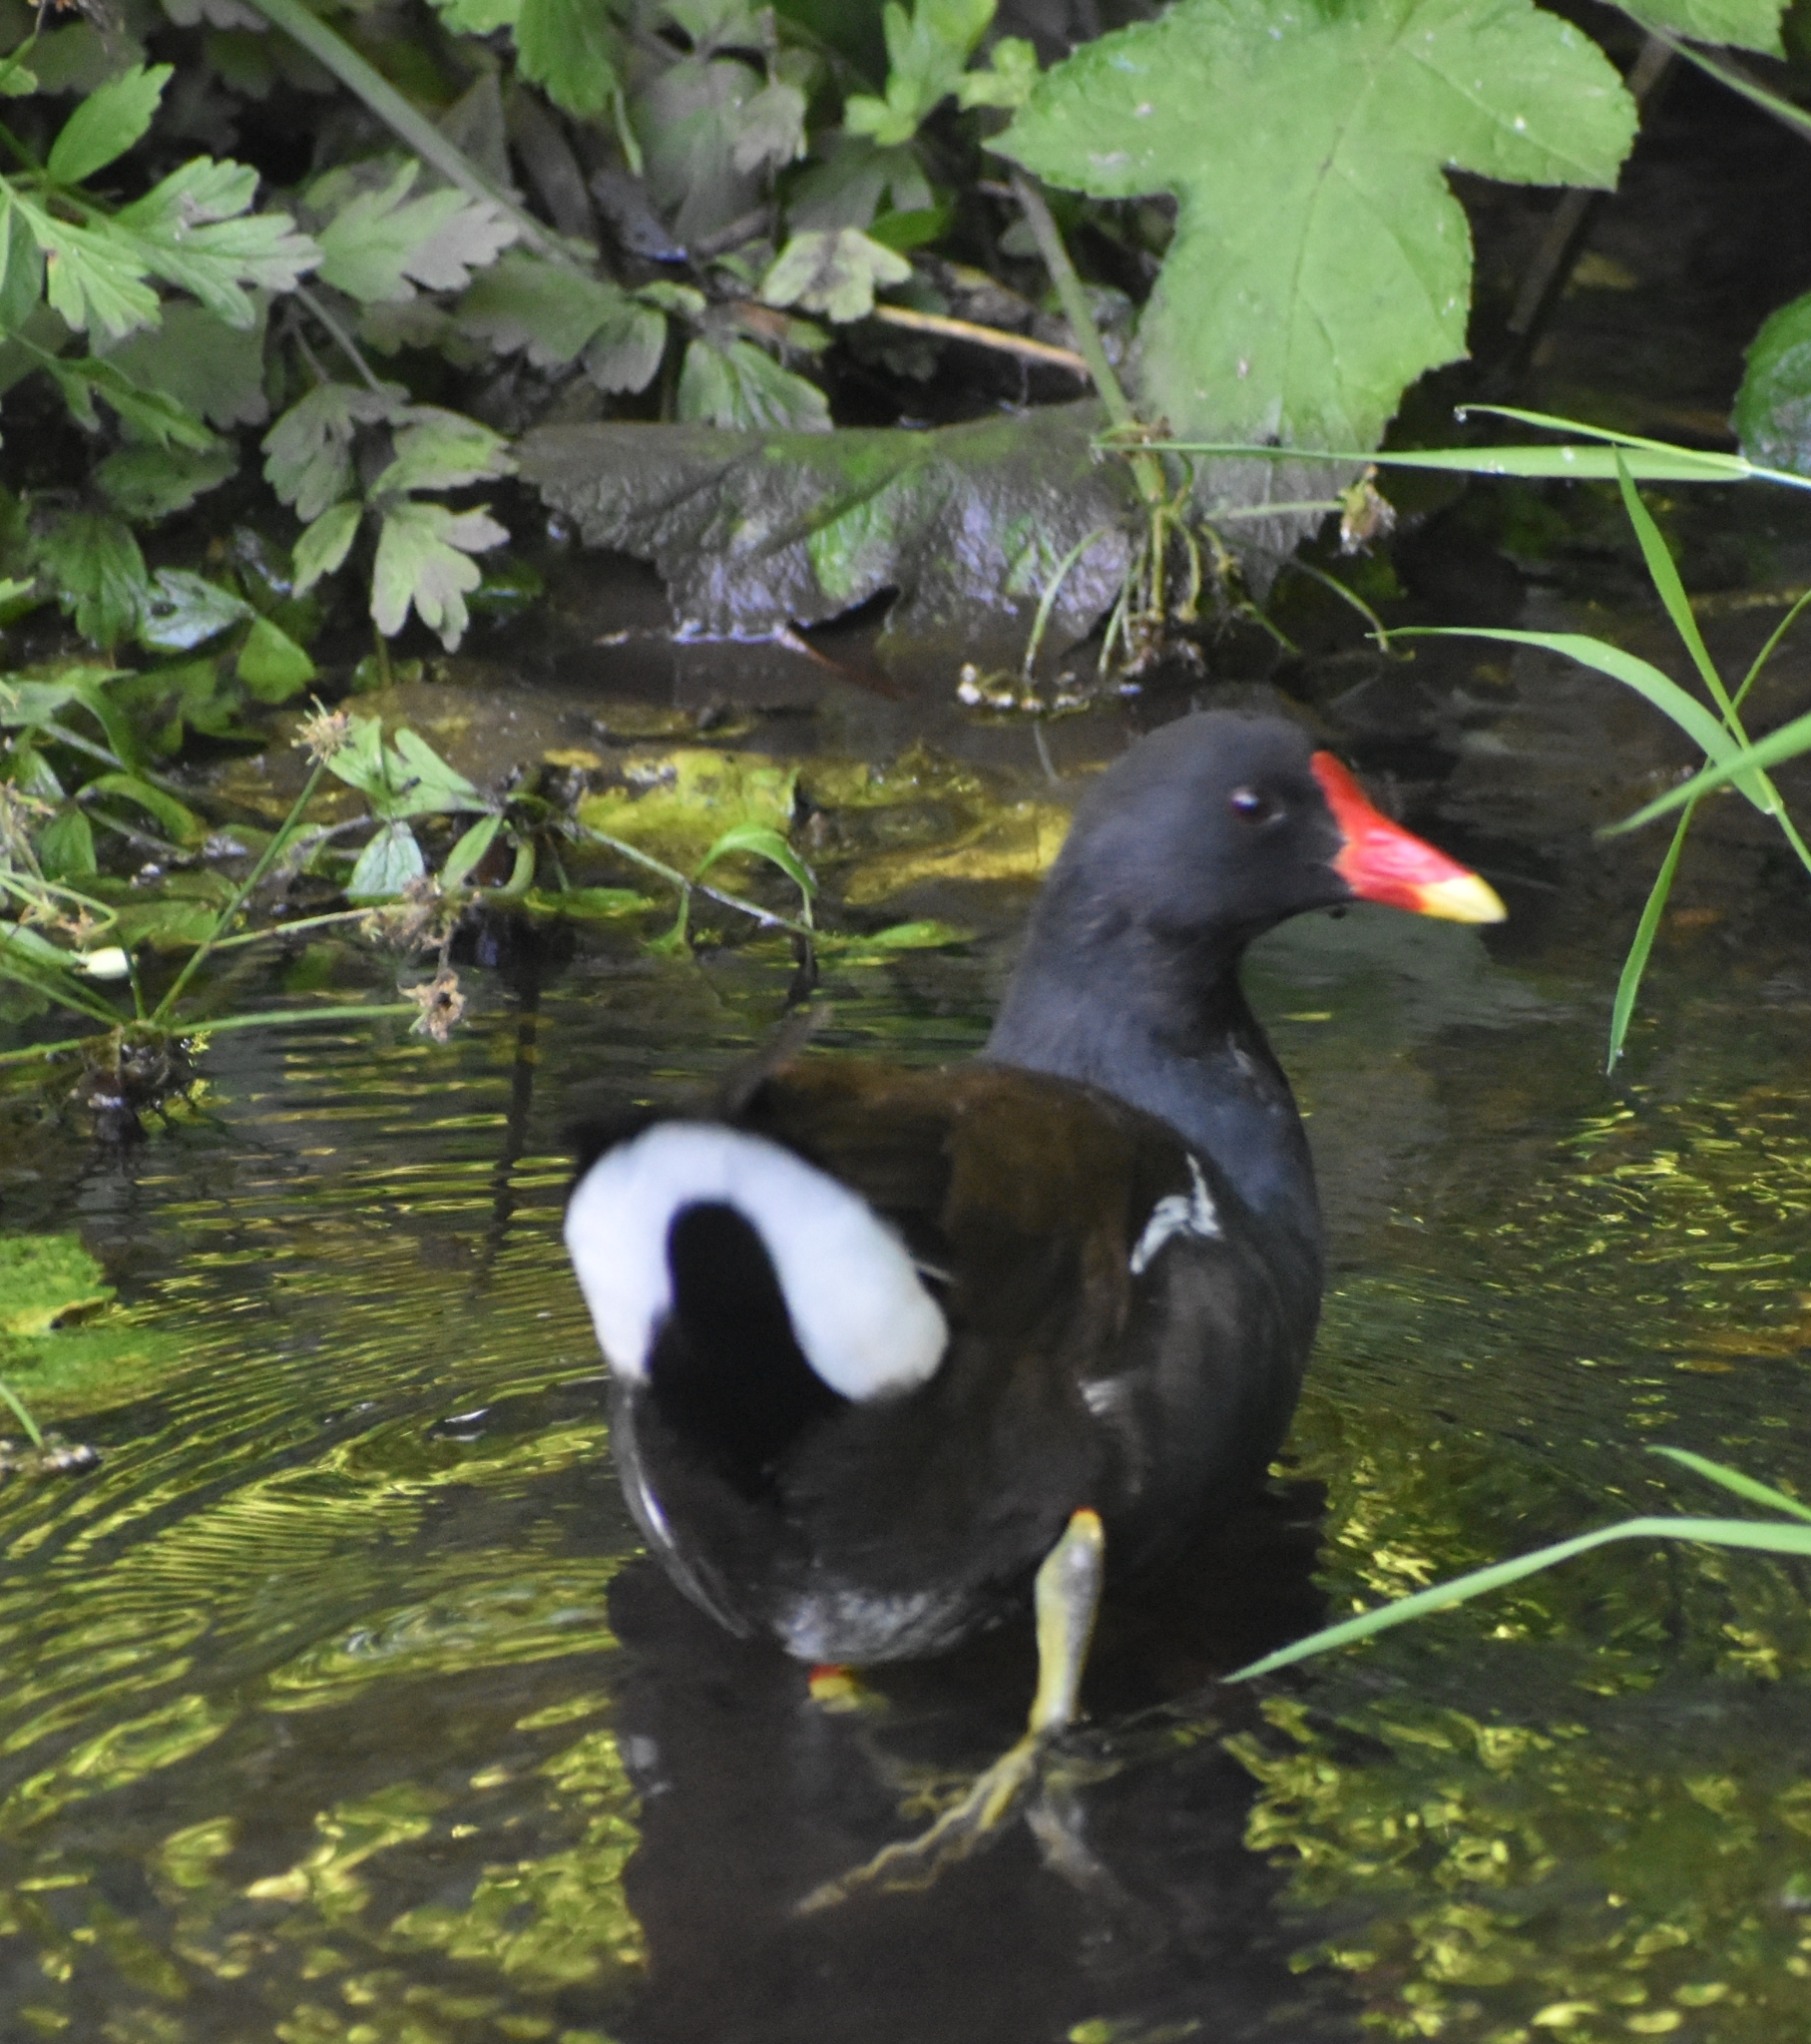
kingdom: Animalia
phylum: Chordata
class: Aves
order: Gruiformes
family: Rallidae
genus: Gallinula
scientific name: Gallinula chloropus
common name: Common moorhen
